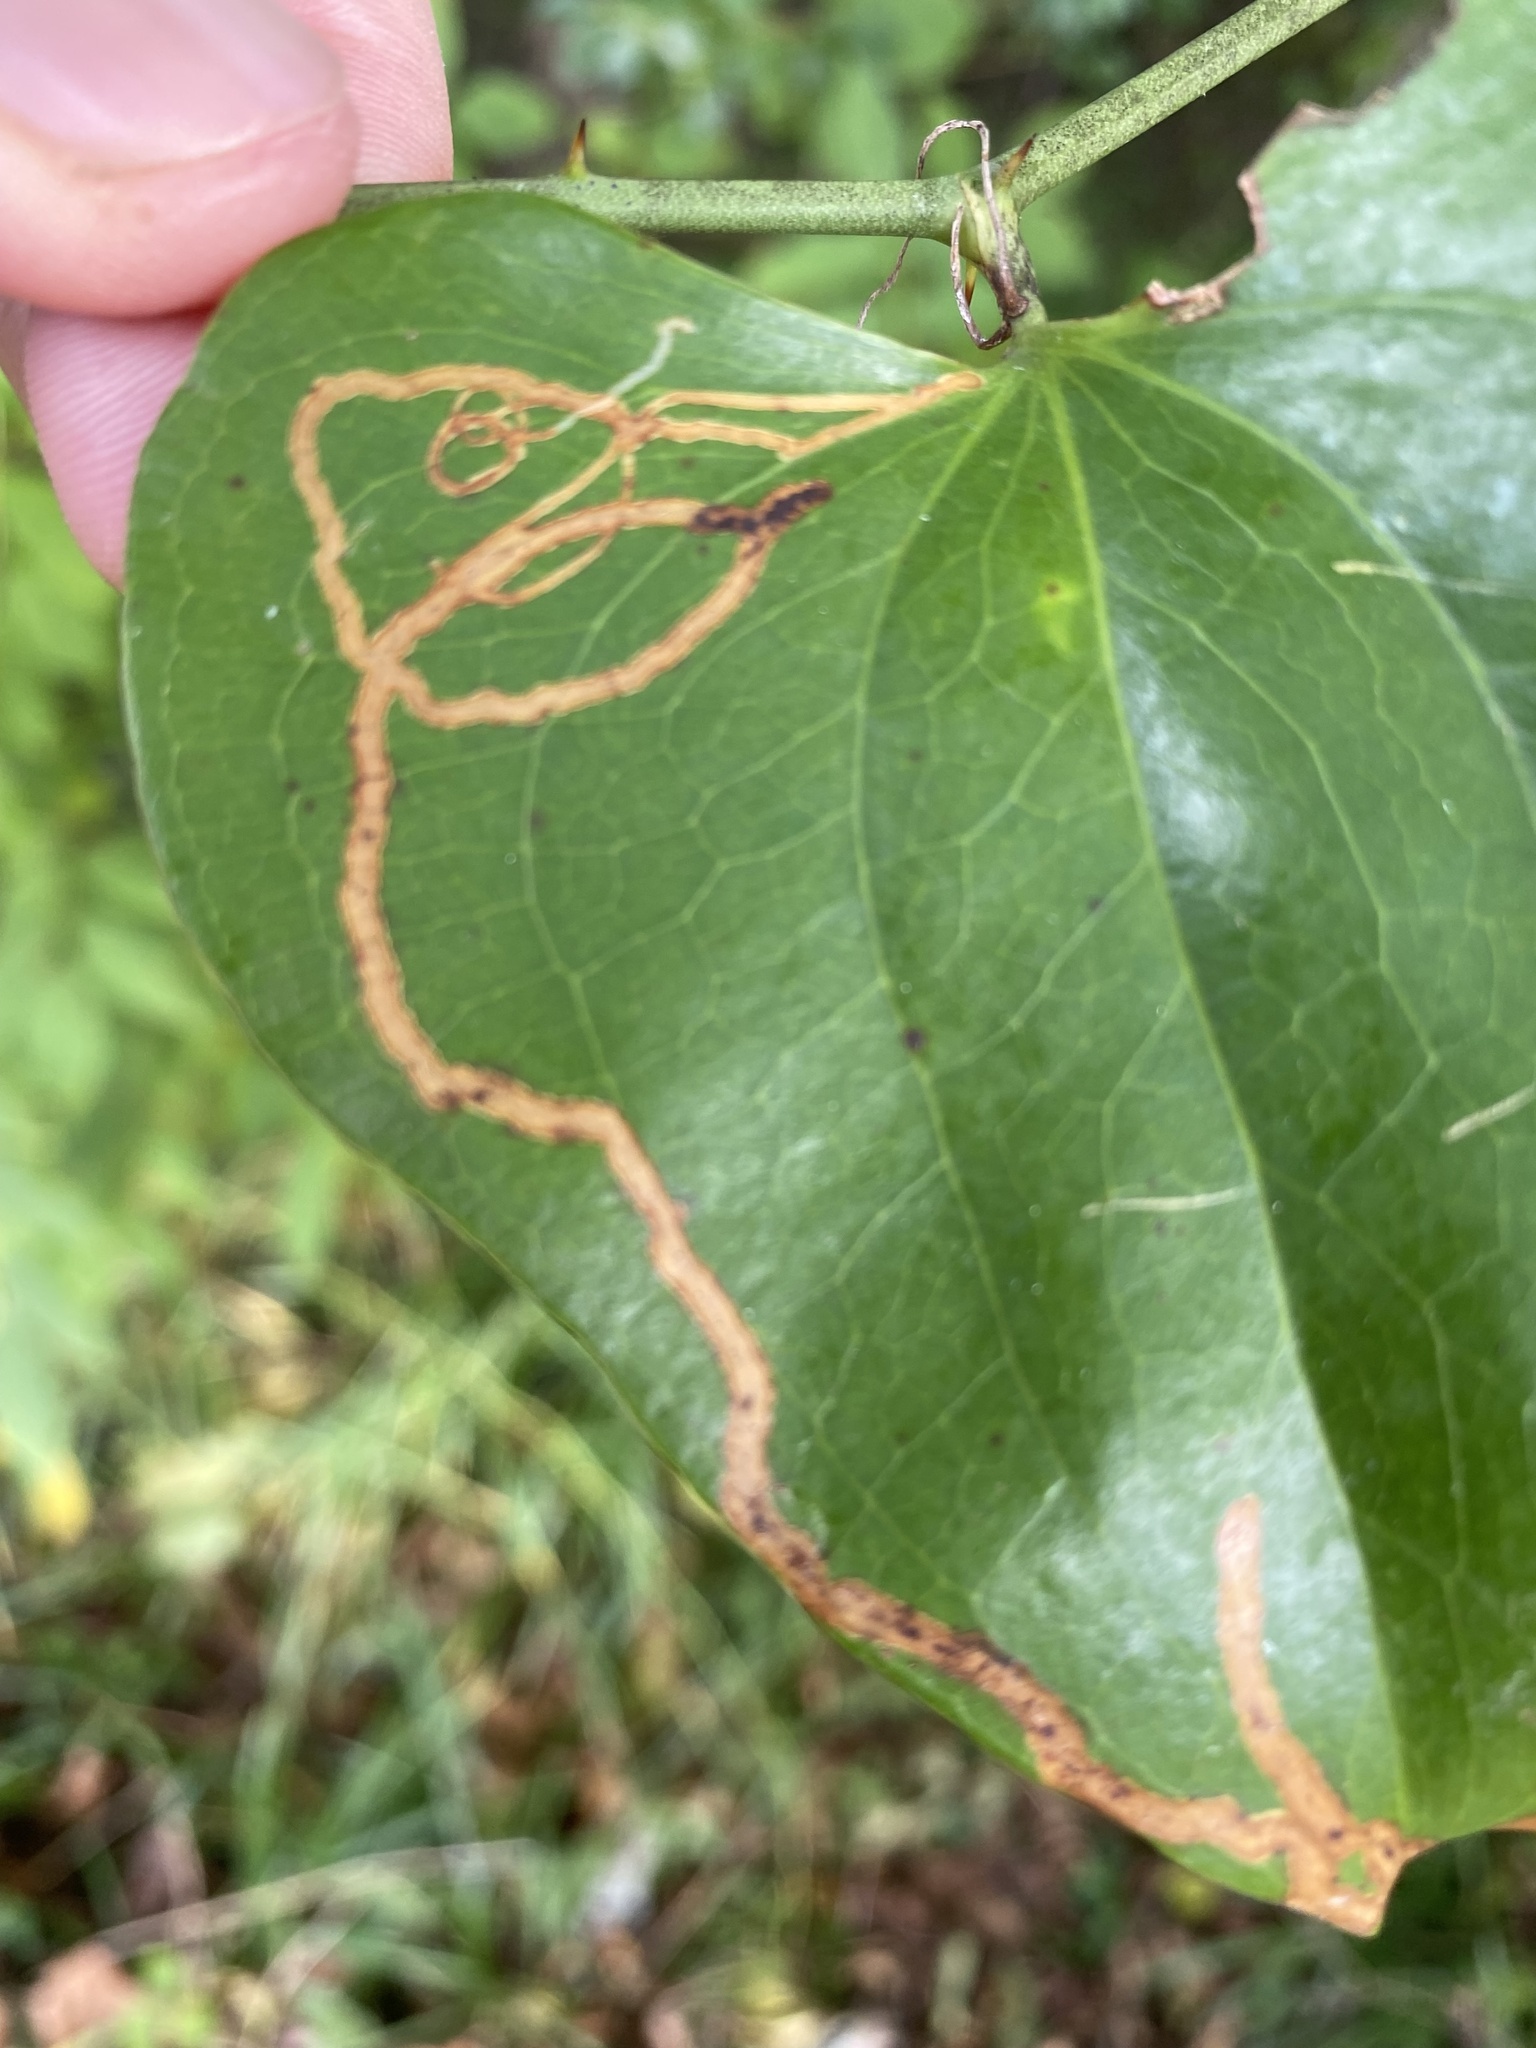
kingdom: Animalia
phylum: Arthropoda
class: Insecta
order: Lepidoptera
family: Gracillariidae
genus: Marmara
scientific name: Marmara smilacisella
